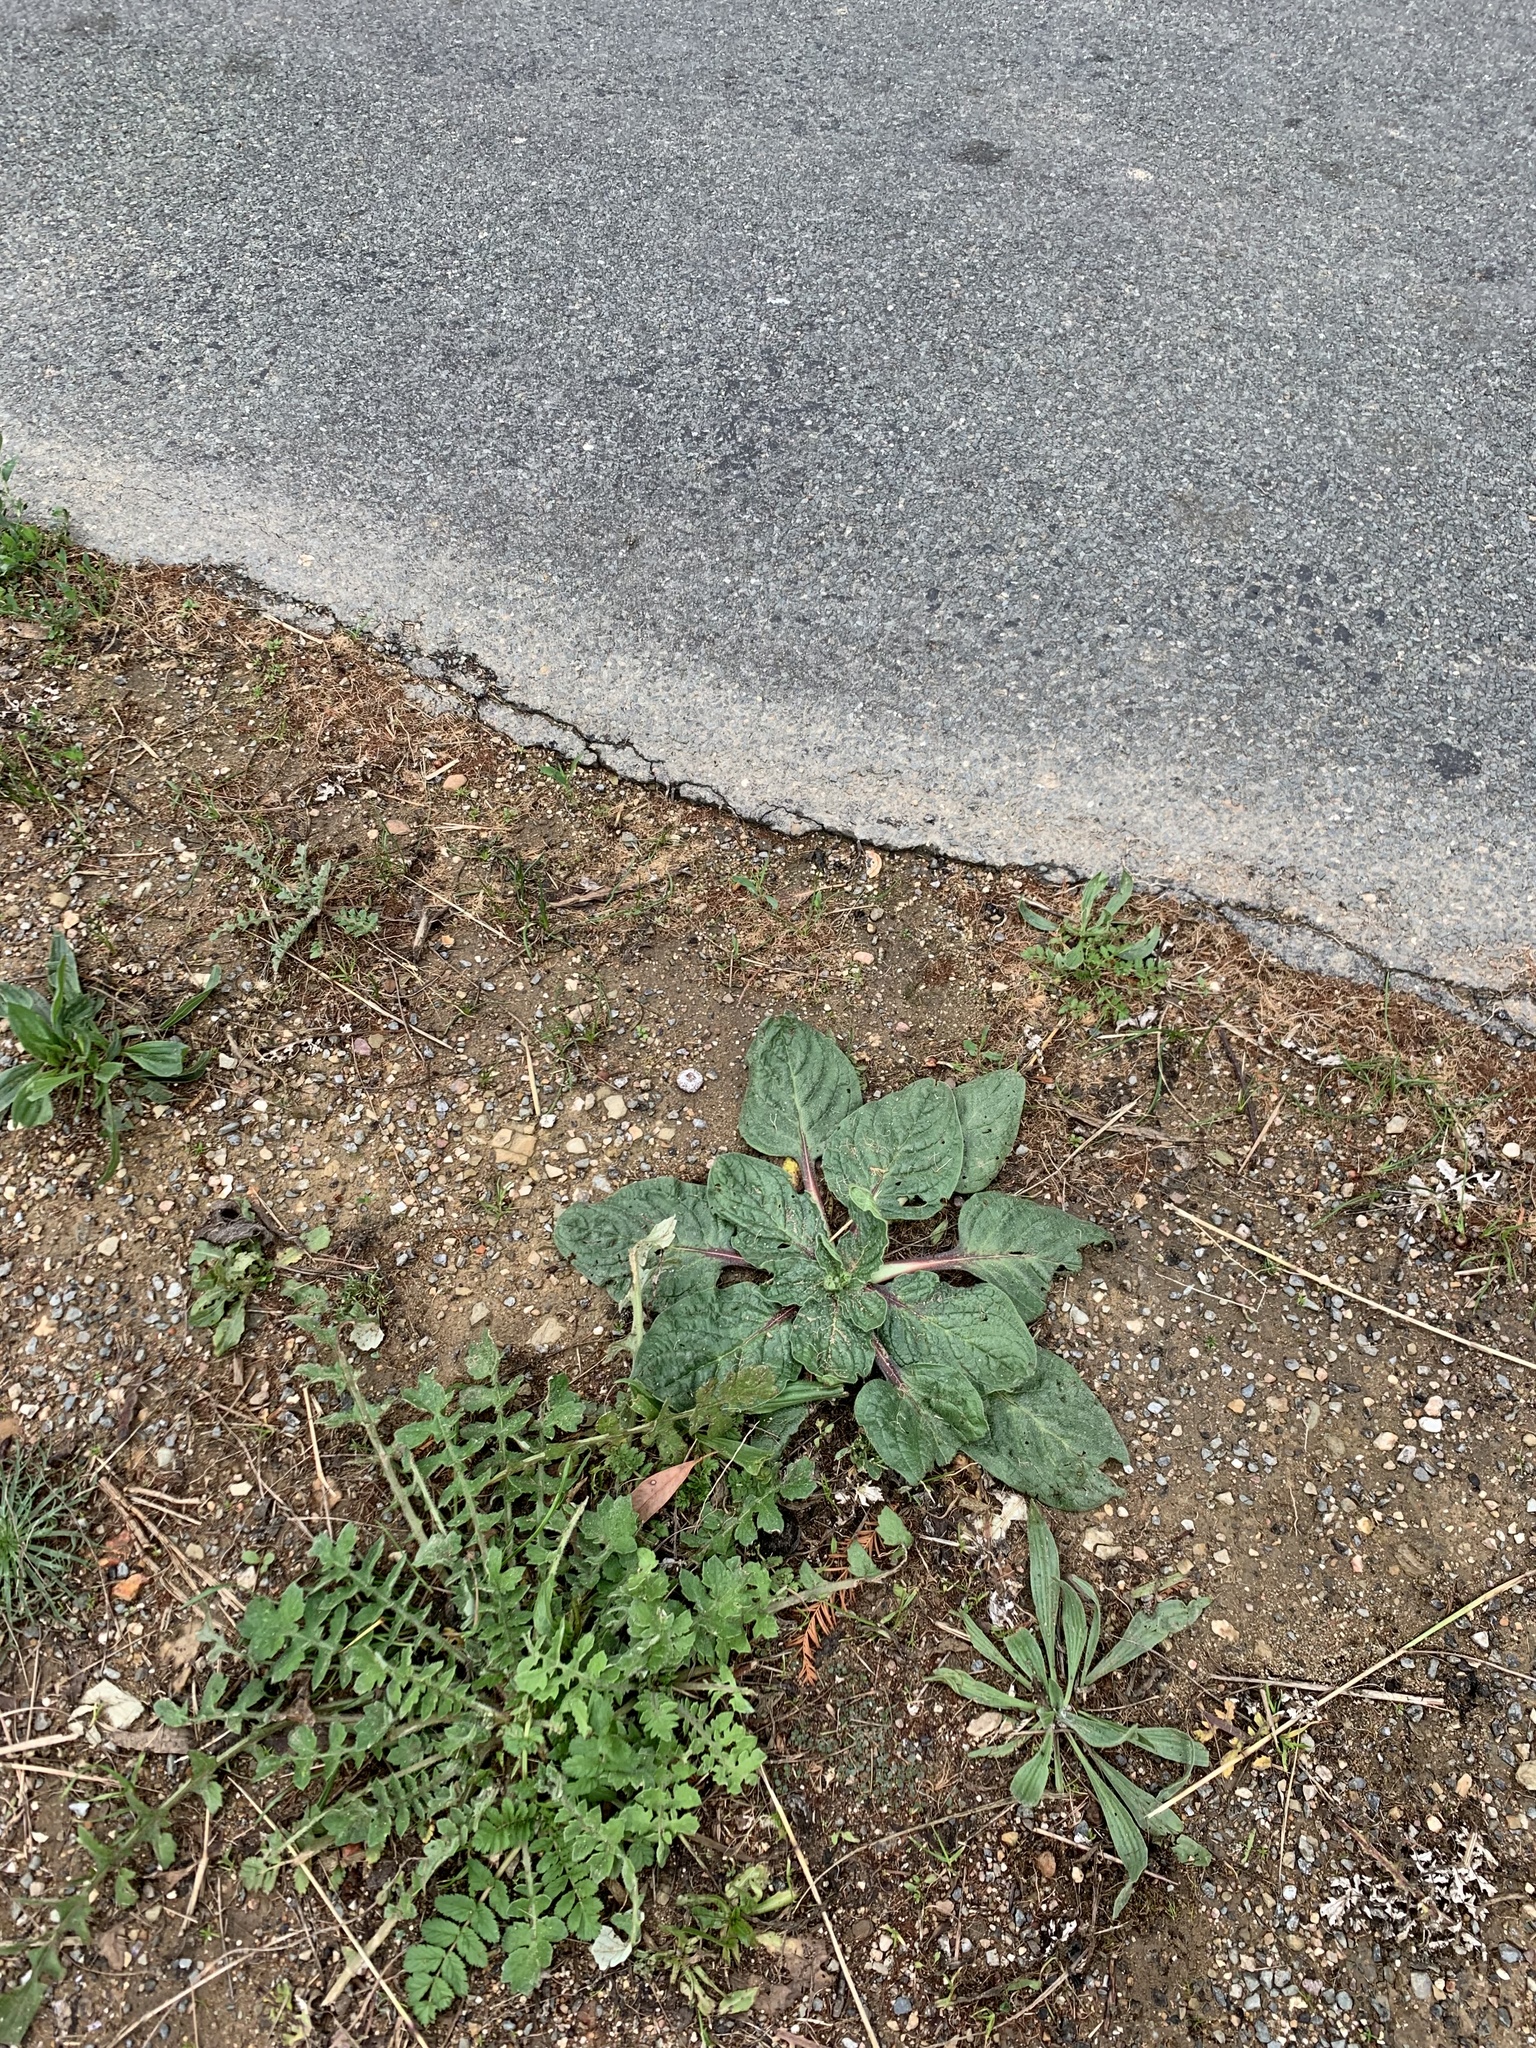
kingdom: Plantae
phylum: Tracheophyta
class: Magnoliopsida
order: Boraginales
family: Boraginaceae
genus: Echium
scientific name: Echium plantagineum
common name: Purple viper's-bugloss
